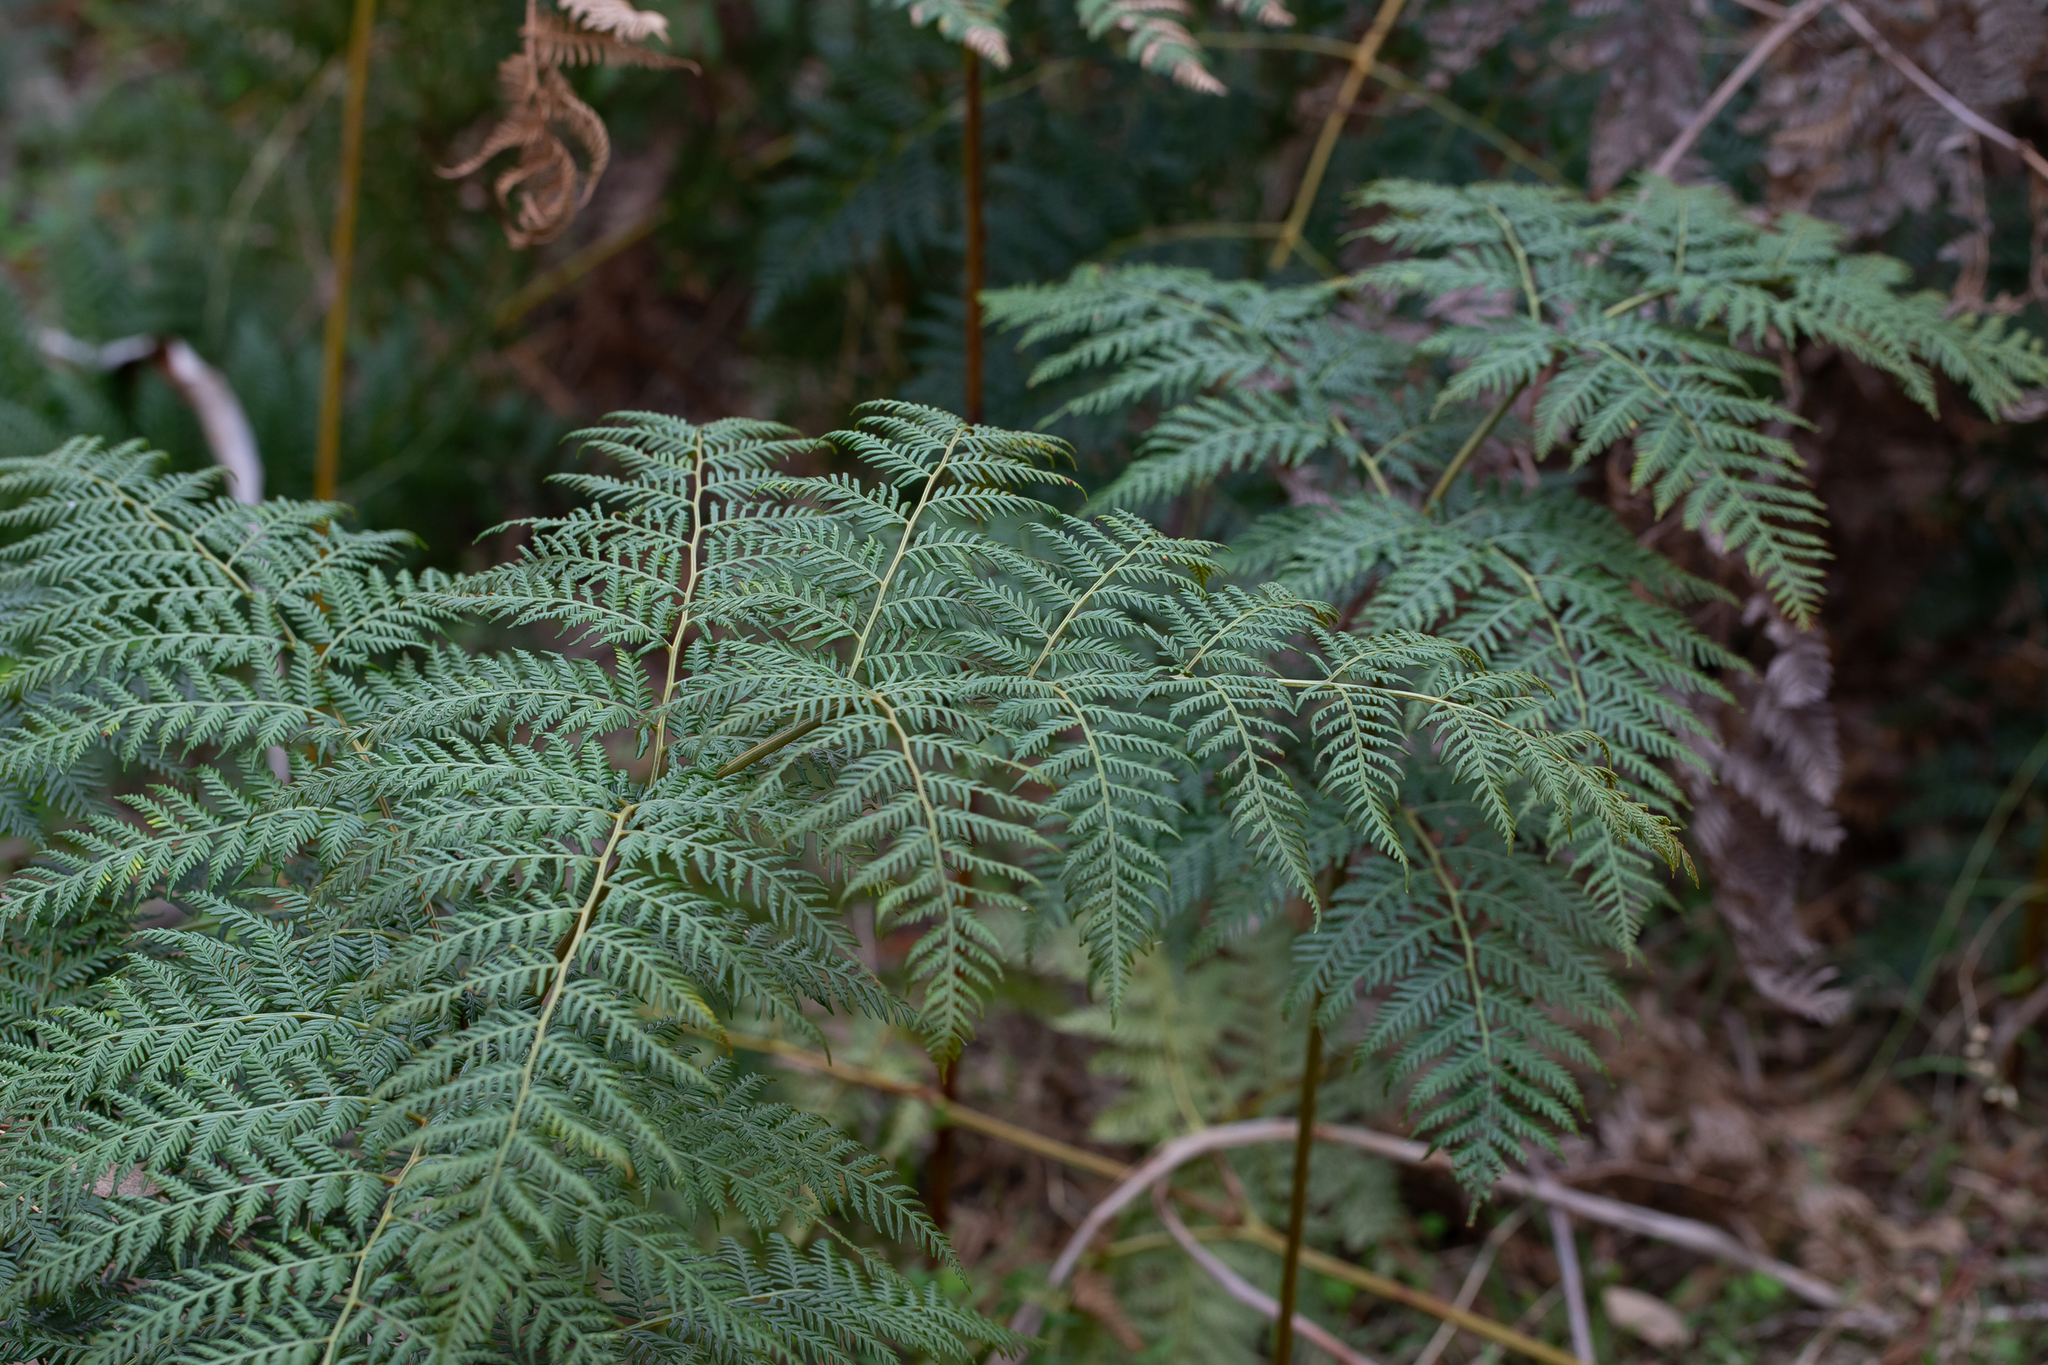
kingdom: Plantae
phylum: Tracheophyta
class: Polypodiopsida
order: Polypodiales
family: Dennstaedtiaceae
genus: Pteridium
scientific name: Pteridium esculentum
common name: Bracken fern
